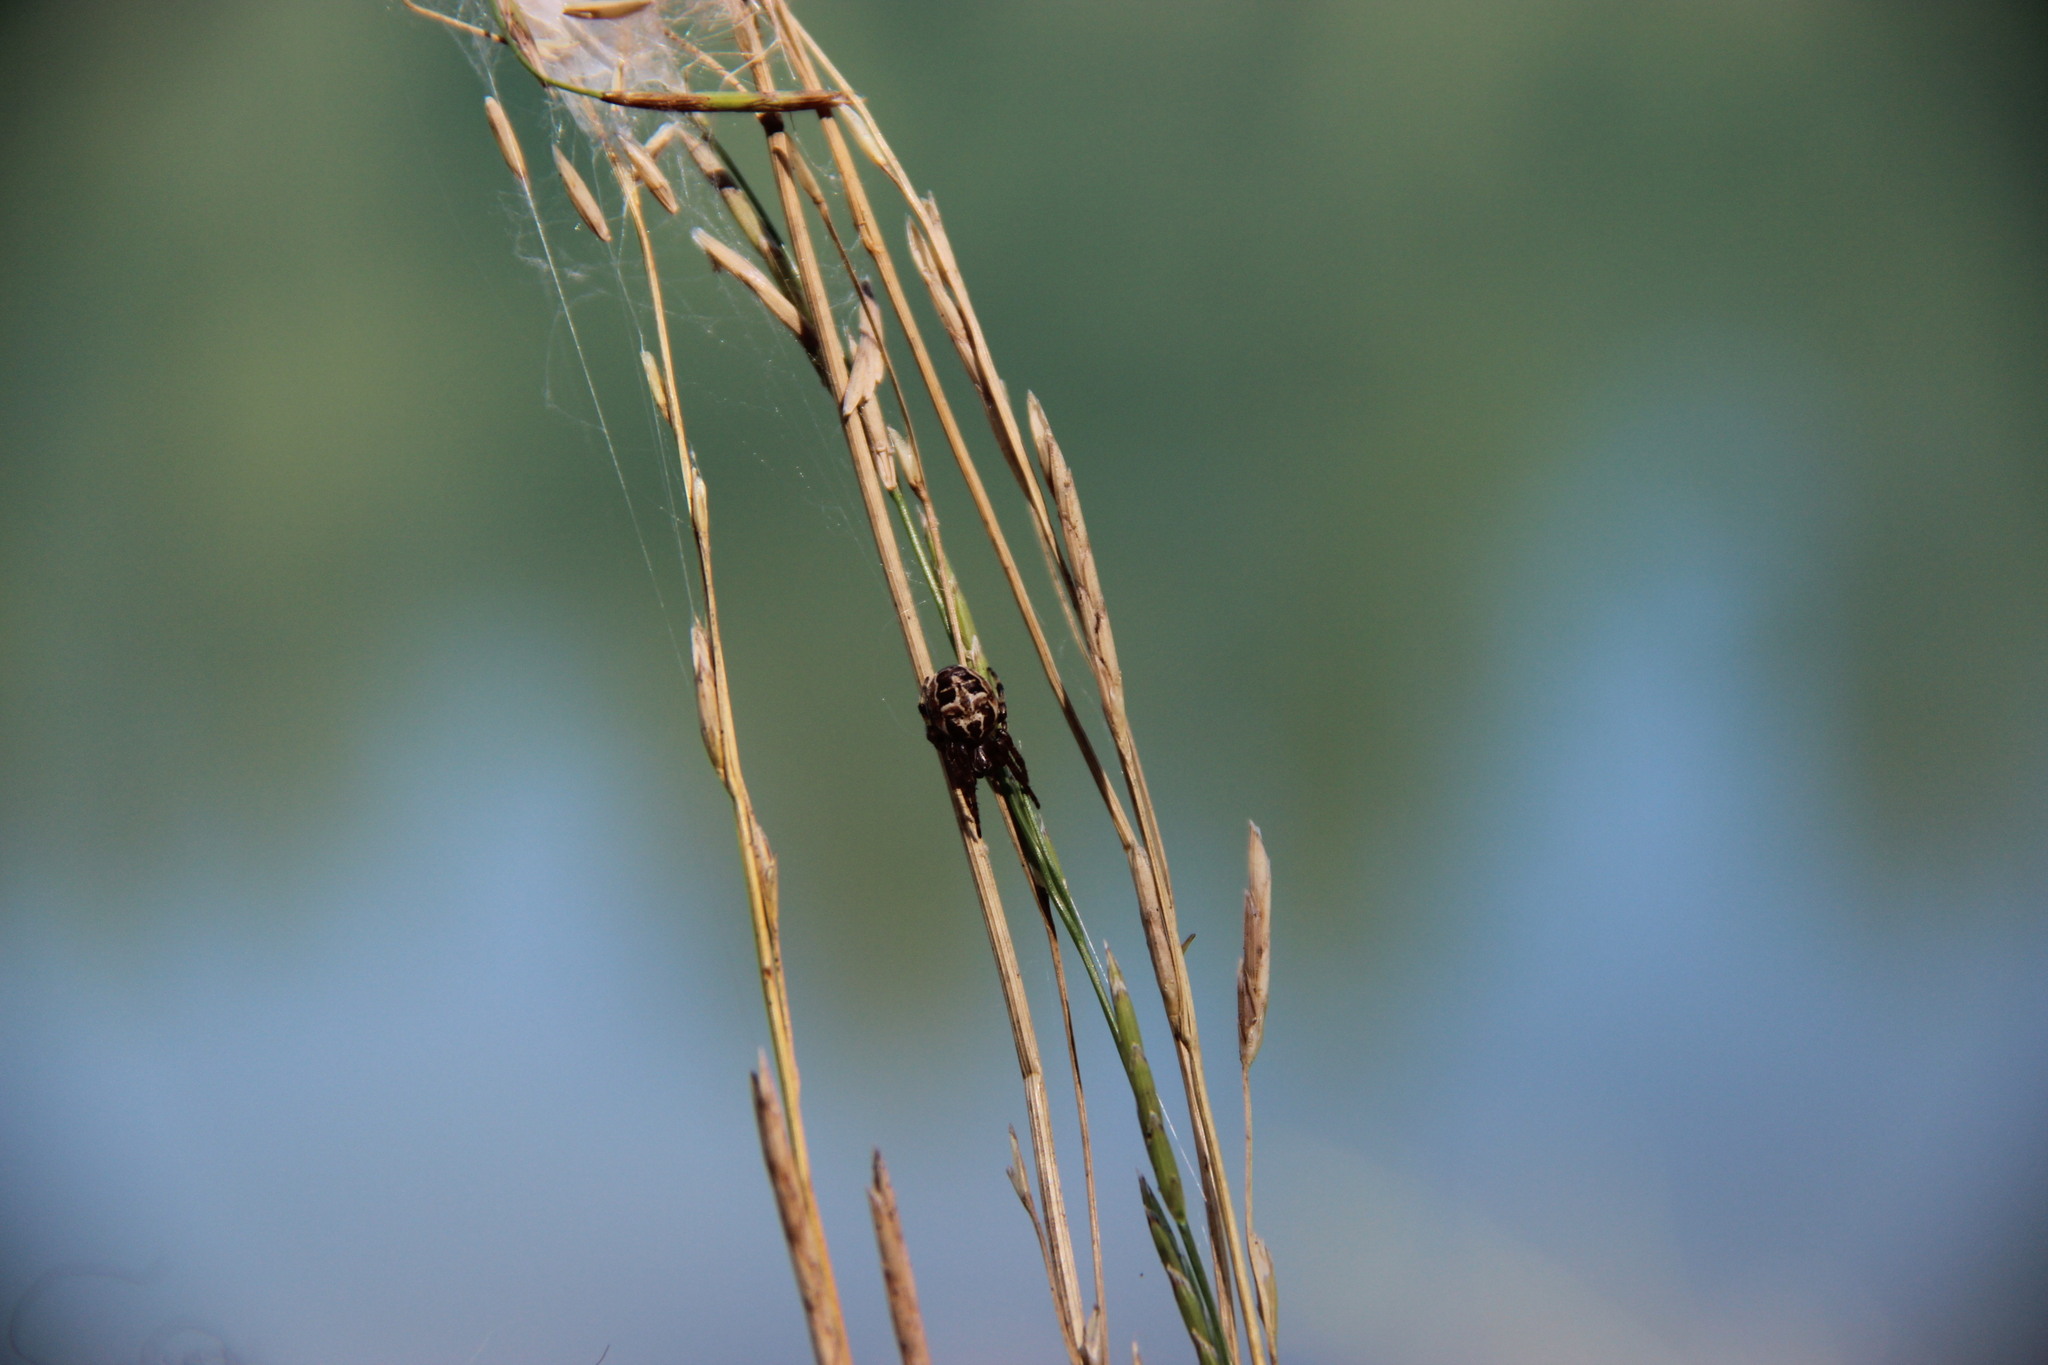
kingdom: Animalia
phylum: Arthropoda
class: Arachnida
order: Araneae
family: Araneidae
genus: Larinioides
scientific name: Larinioides
